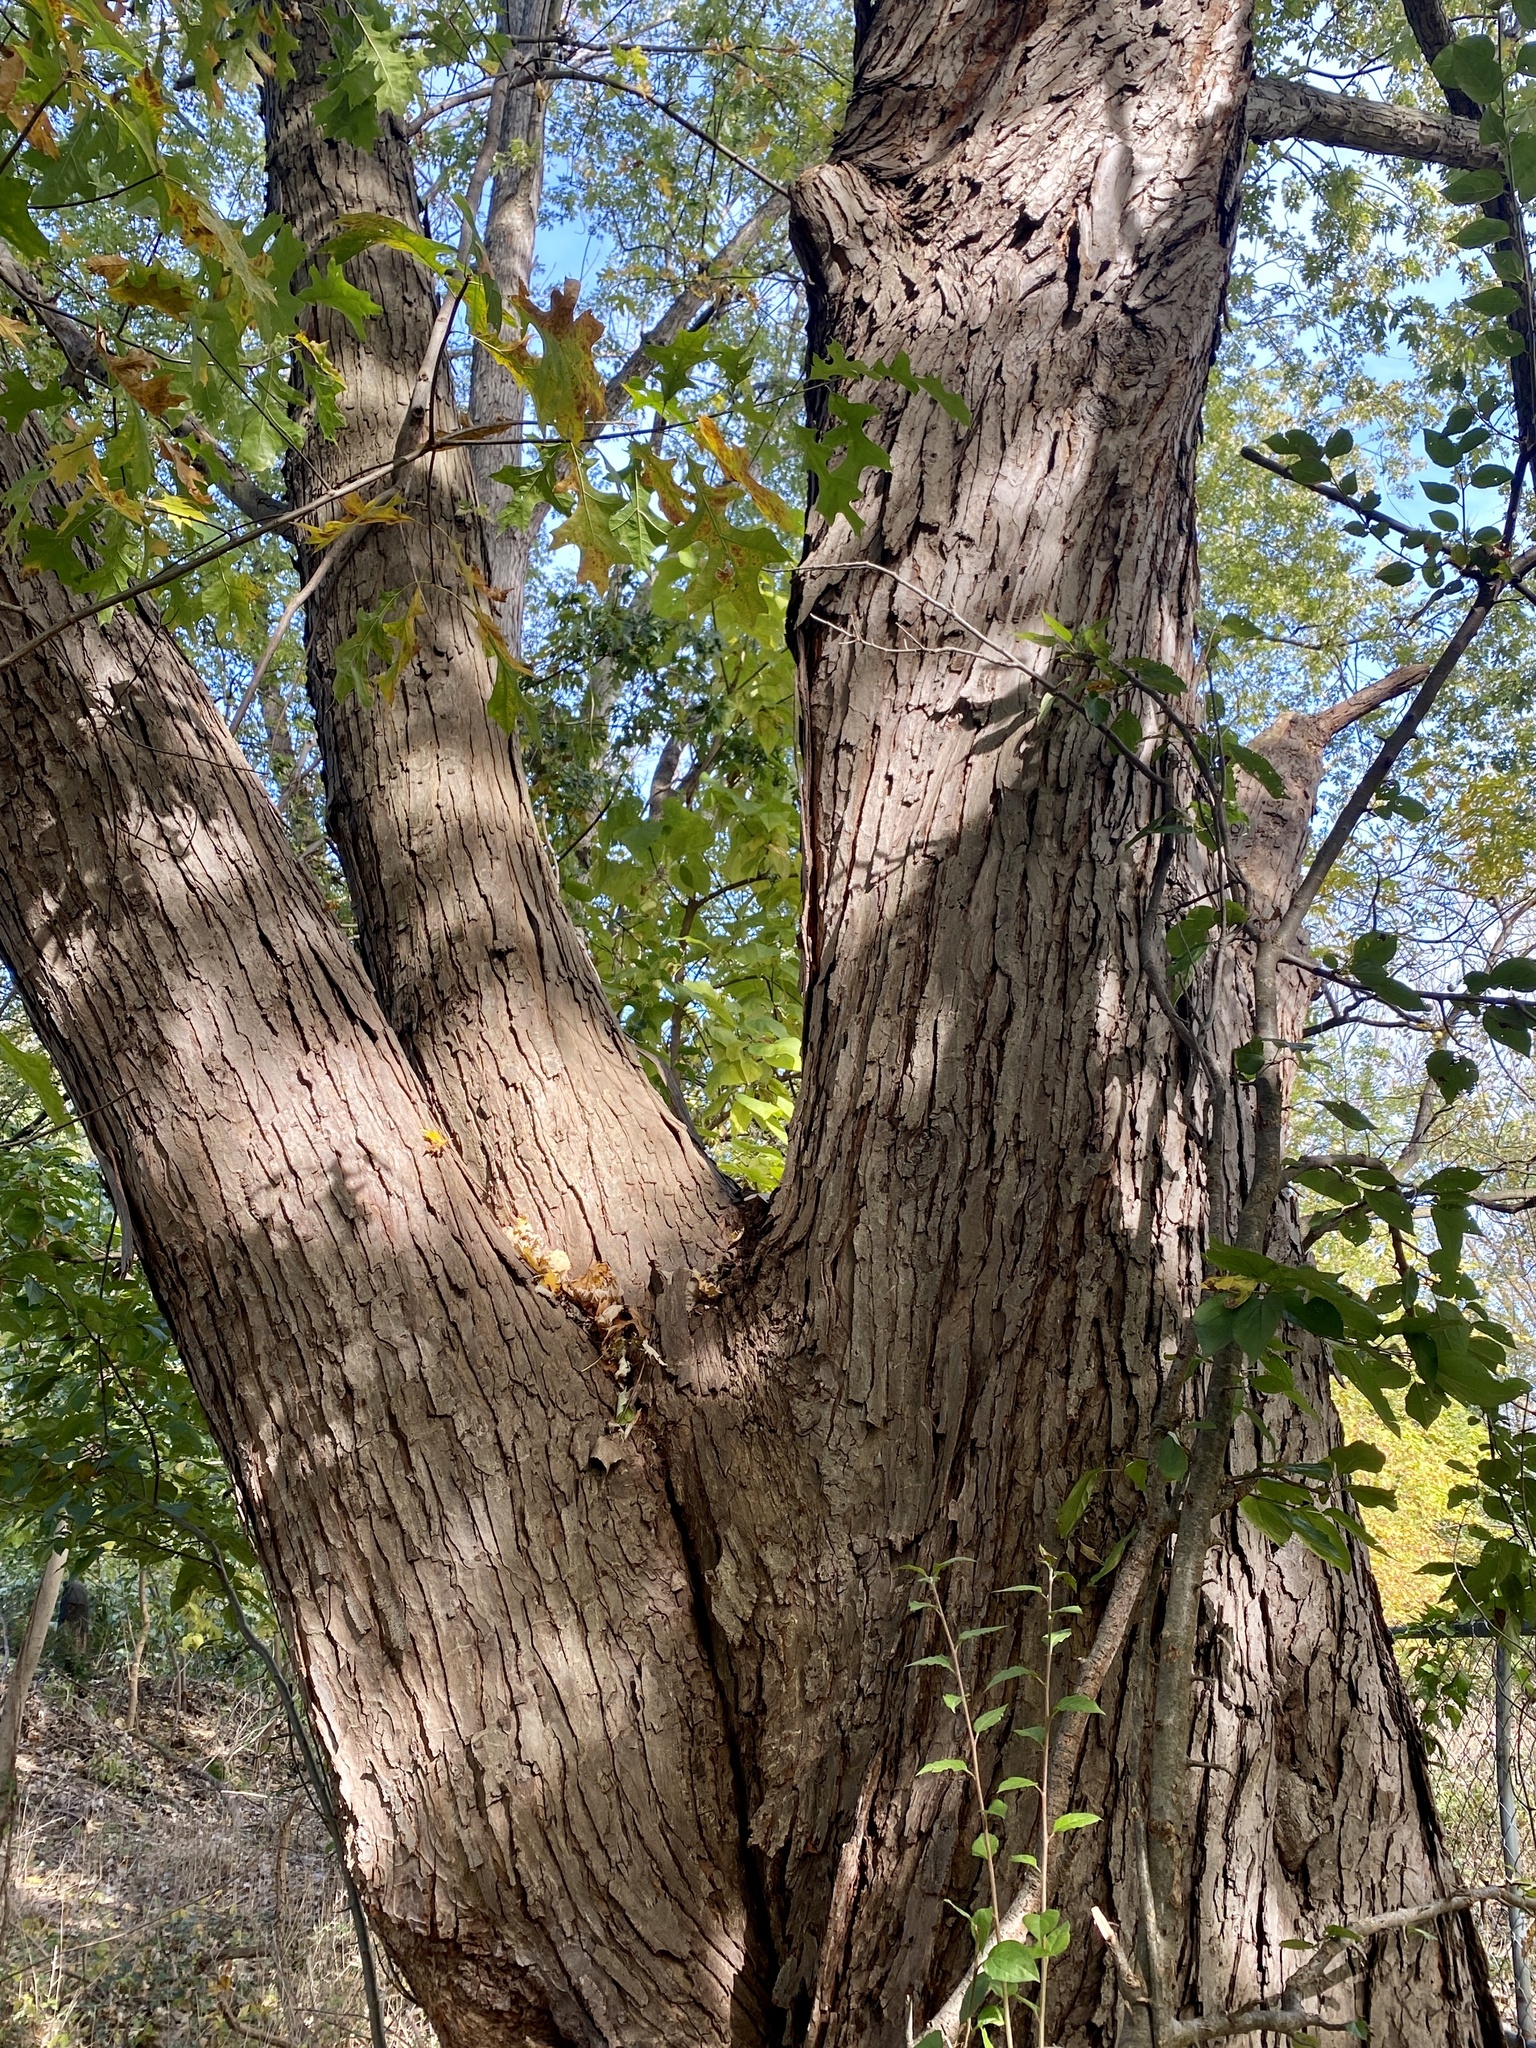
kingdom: Plantae
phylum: Tracheophyta
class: Magnoliopsida
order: Sapindales
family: Sapindaceae
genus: Acer
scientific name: Acer saccharinum
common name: Silver maple
